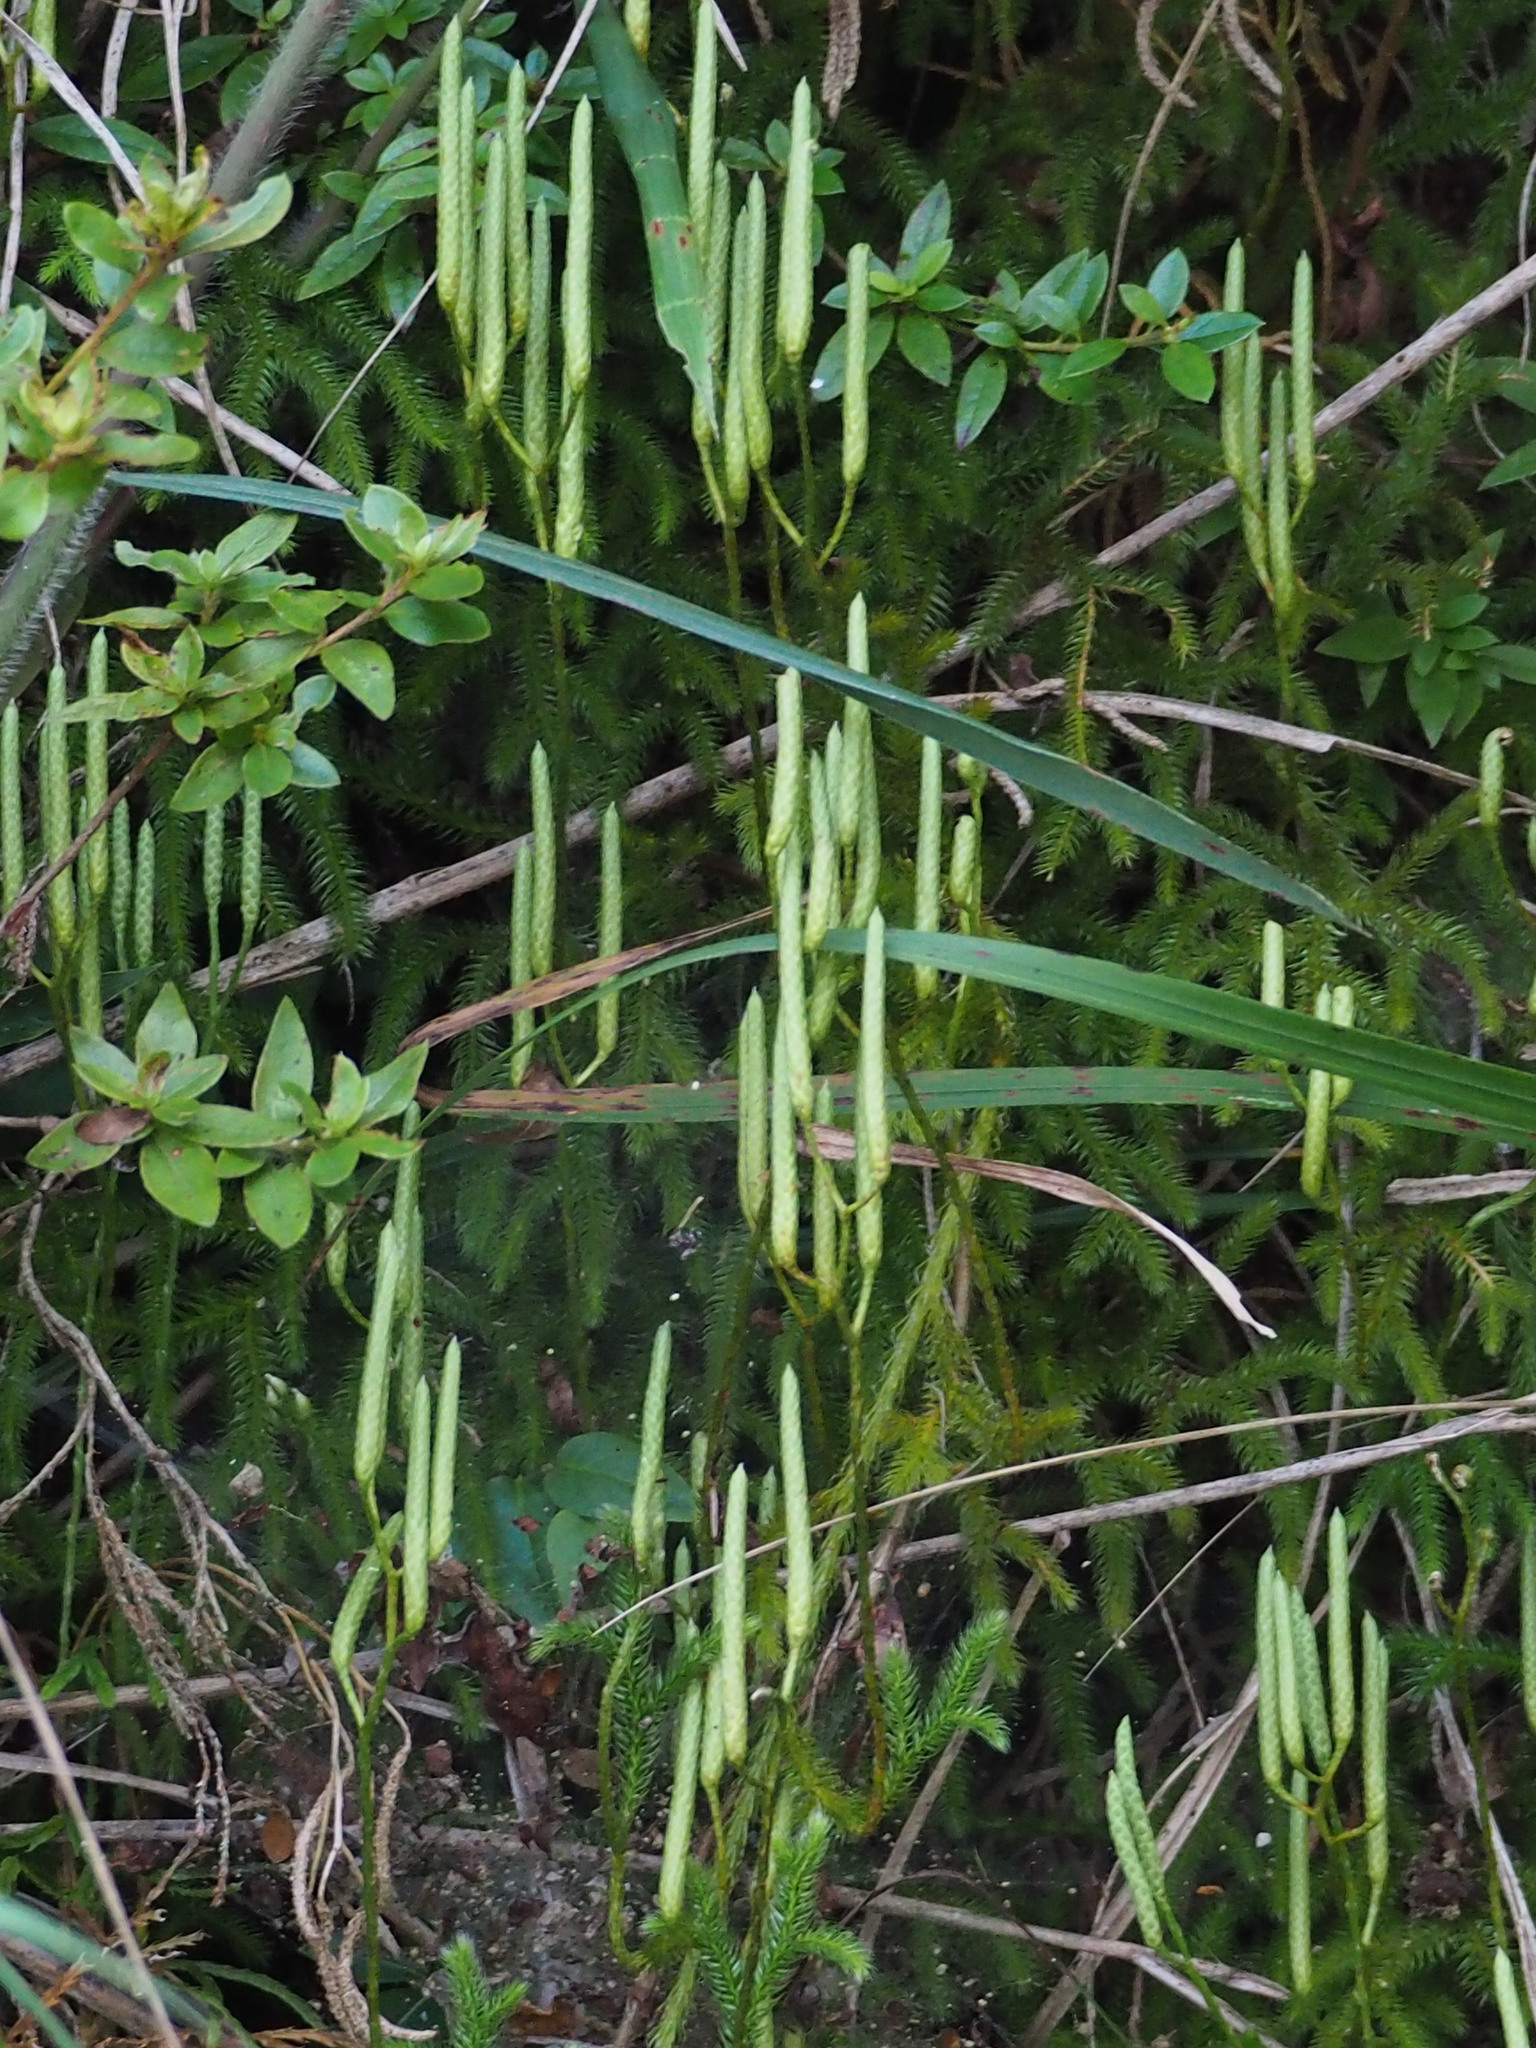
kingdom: Plantae
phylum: Tracheophyta
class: Lycopodiopsida
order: Lycopodiales
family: Lycopodiaceae
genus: Lycopodium
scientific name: Lycopodium japonicum
